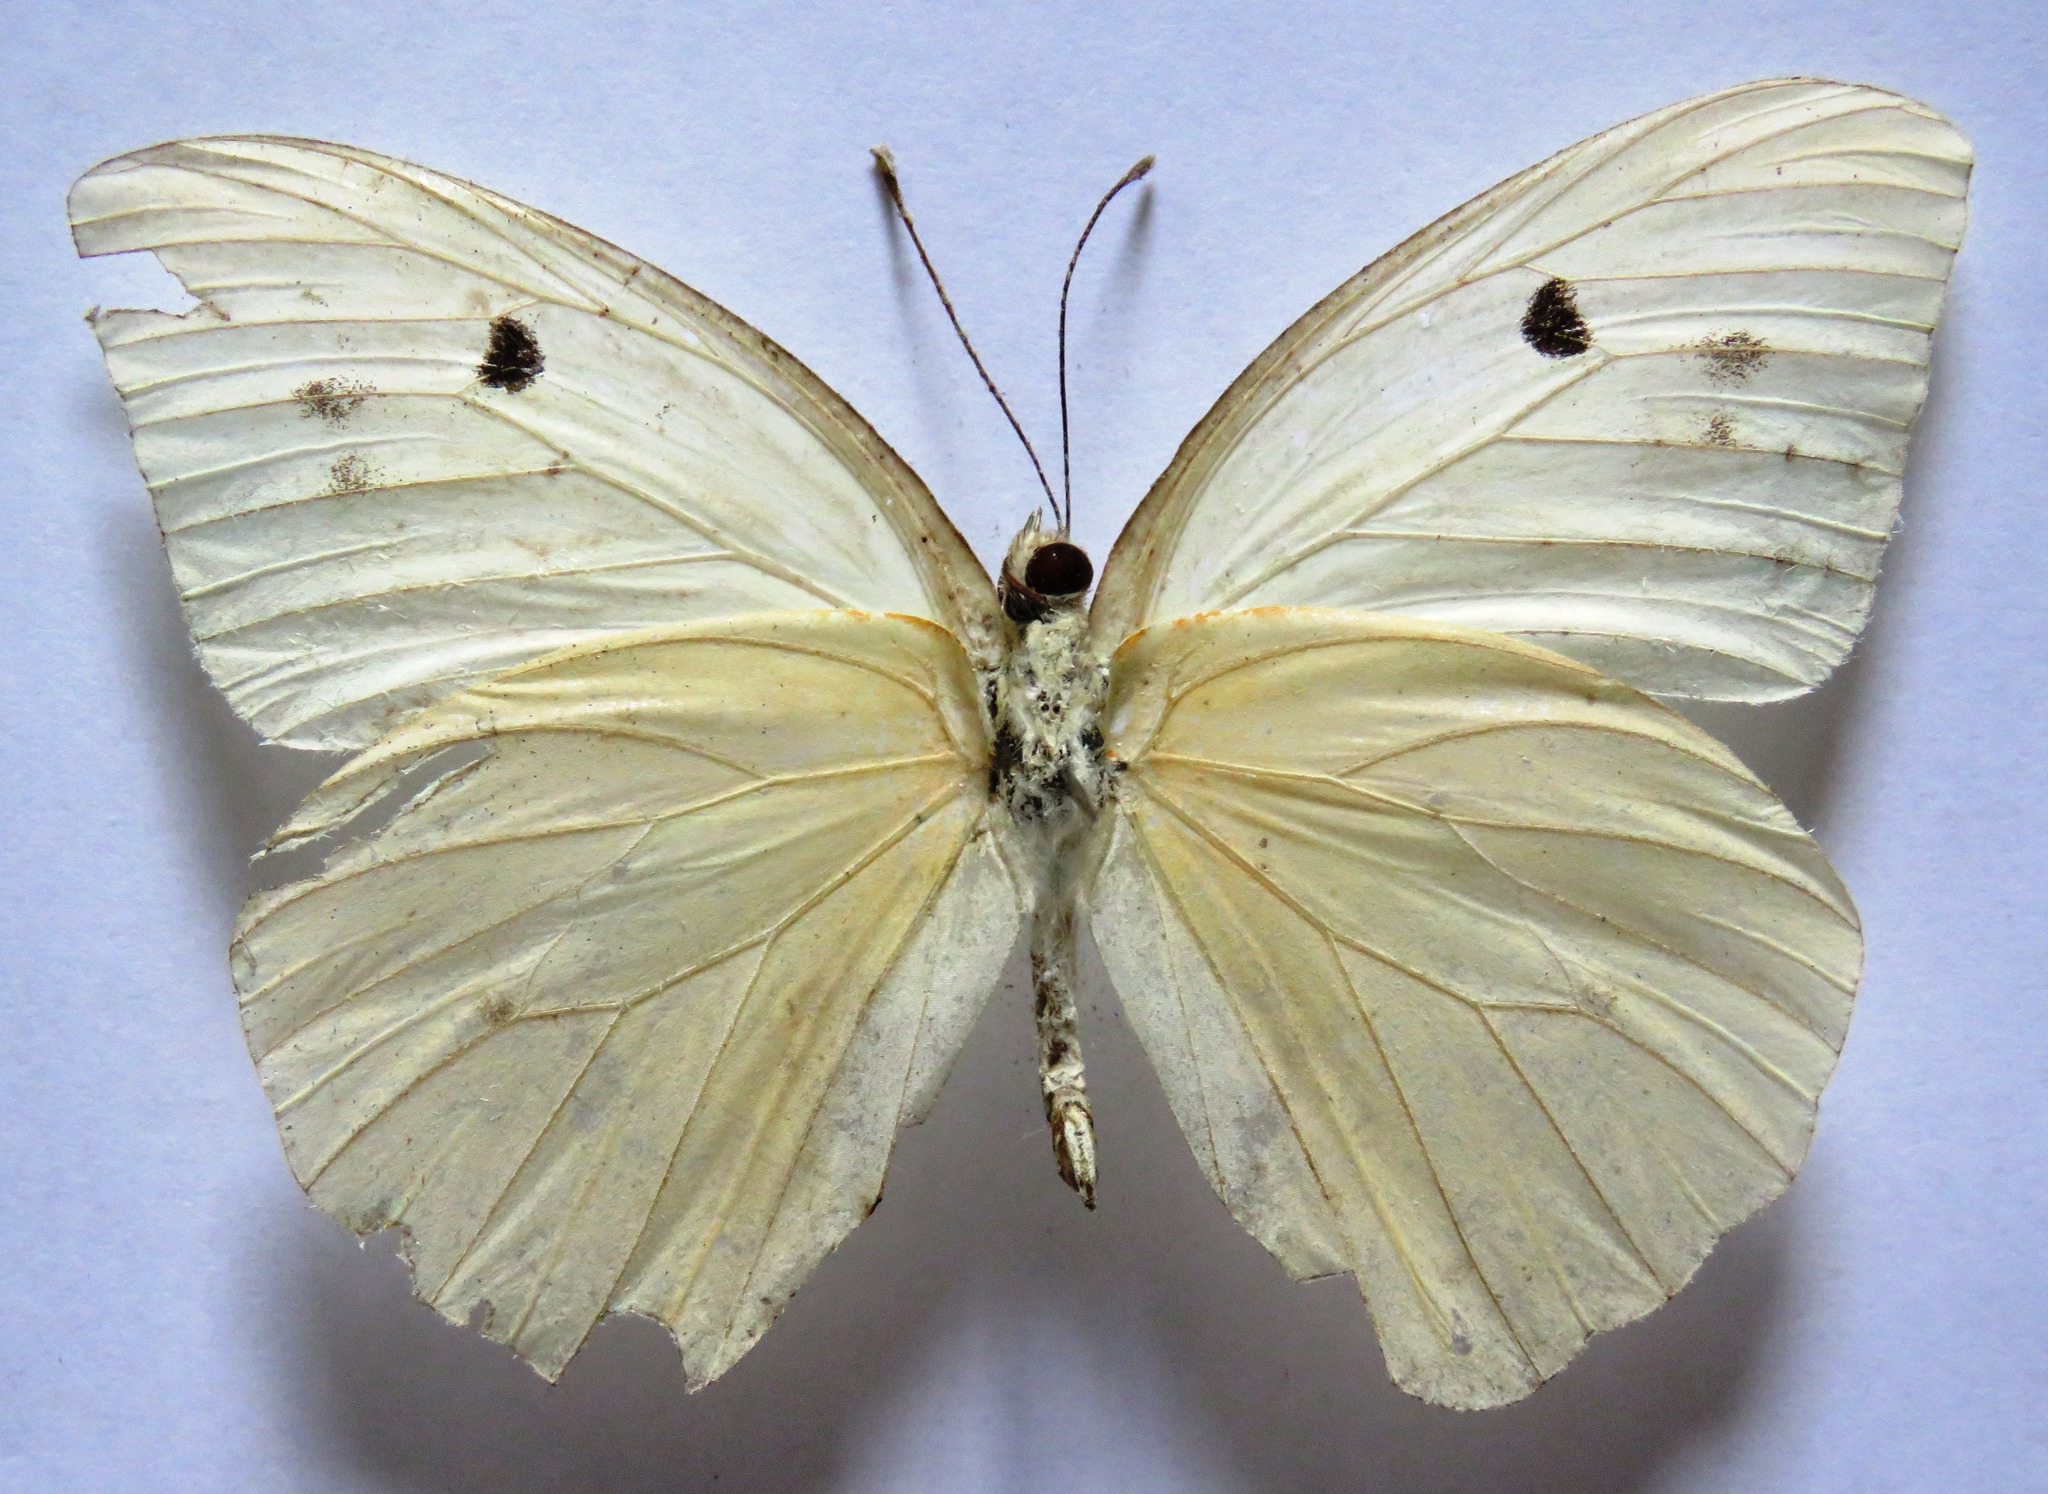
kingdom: Animalia
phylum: Arthropoda
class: Insecta
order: Lepidoptera
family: Pieridae
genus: Ganyra
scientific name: Ganyra josephina
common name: Giant white
